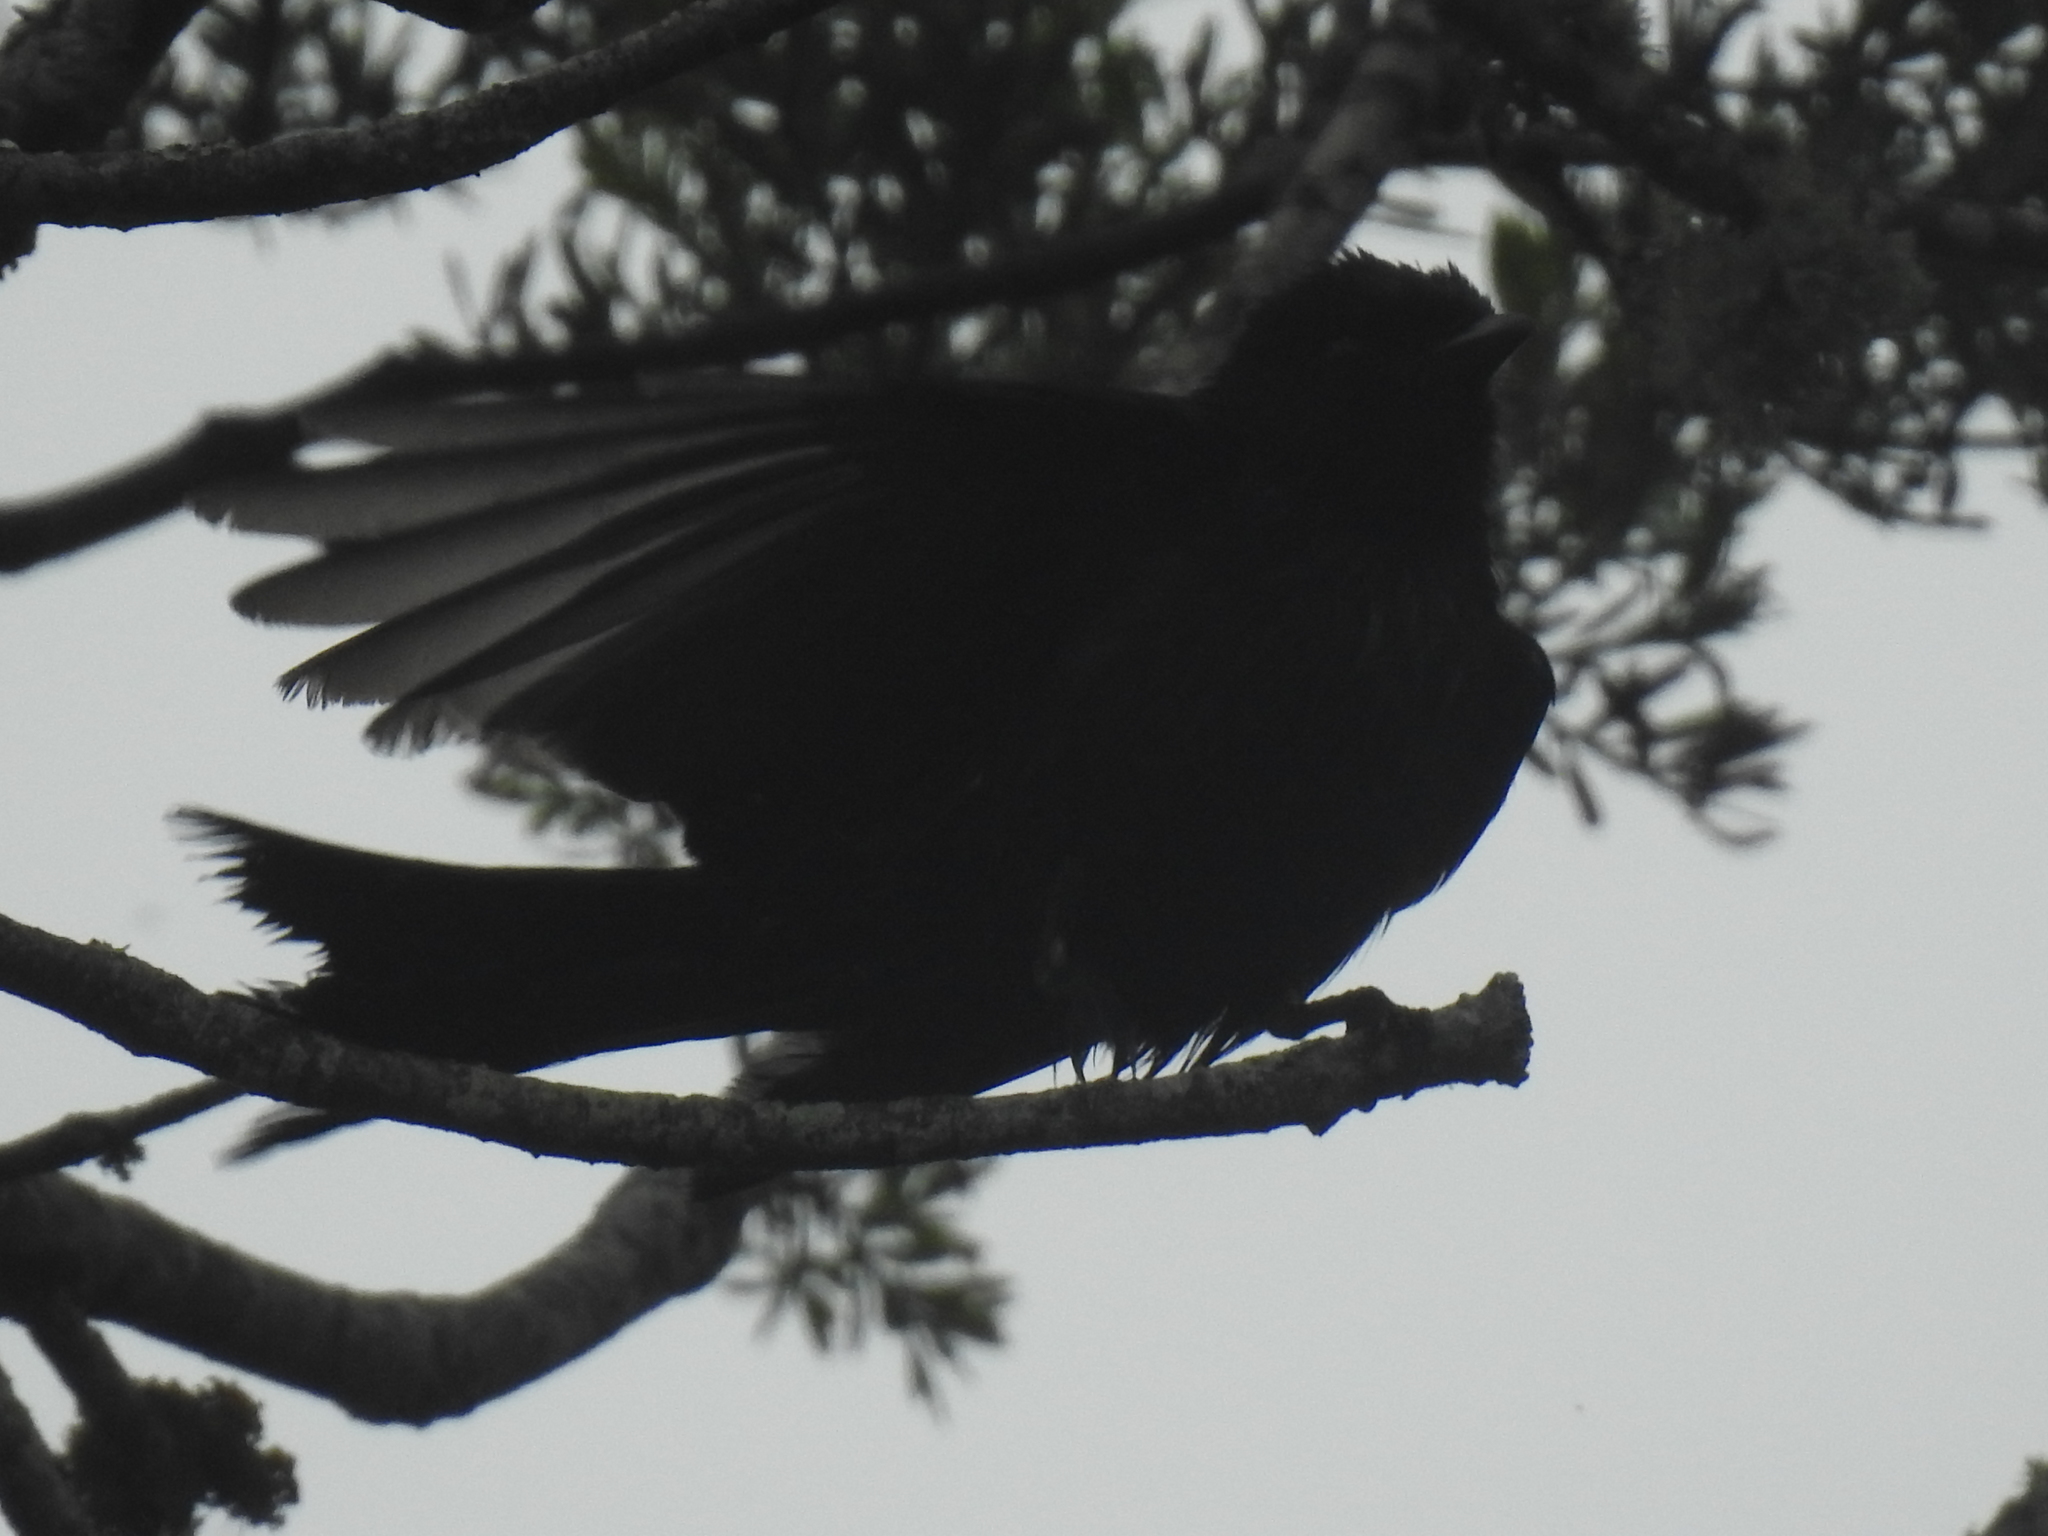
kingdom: Animalia
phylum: Chordata
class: Aves
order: Passeriformes
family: Dicruridae
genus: Dicrurus
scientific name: Dicrurus adsimilis
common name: Fork-tailed drongo
